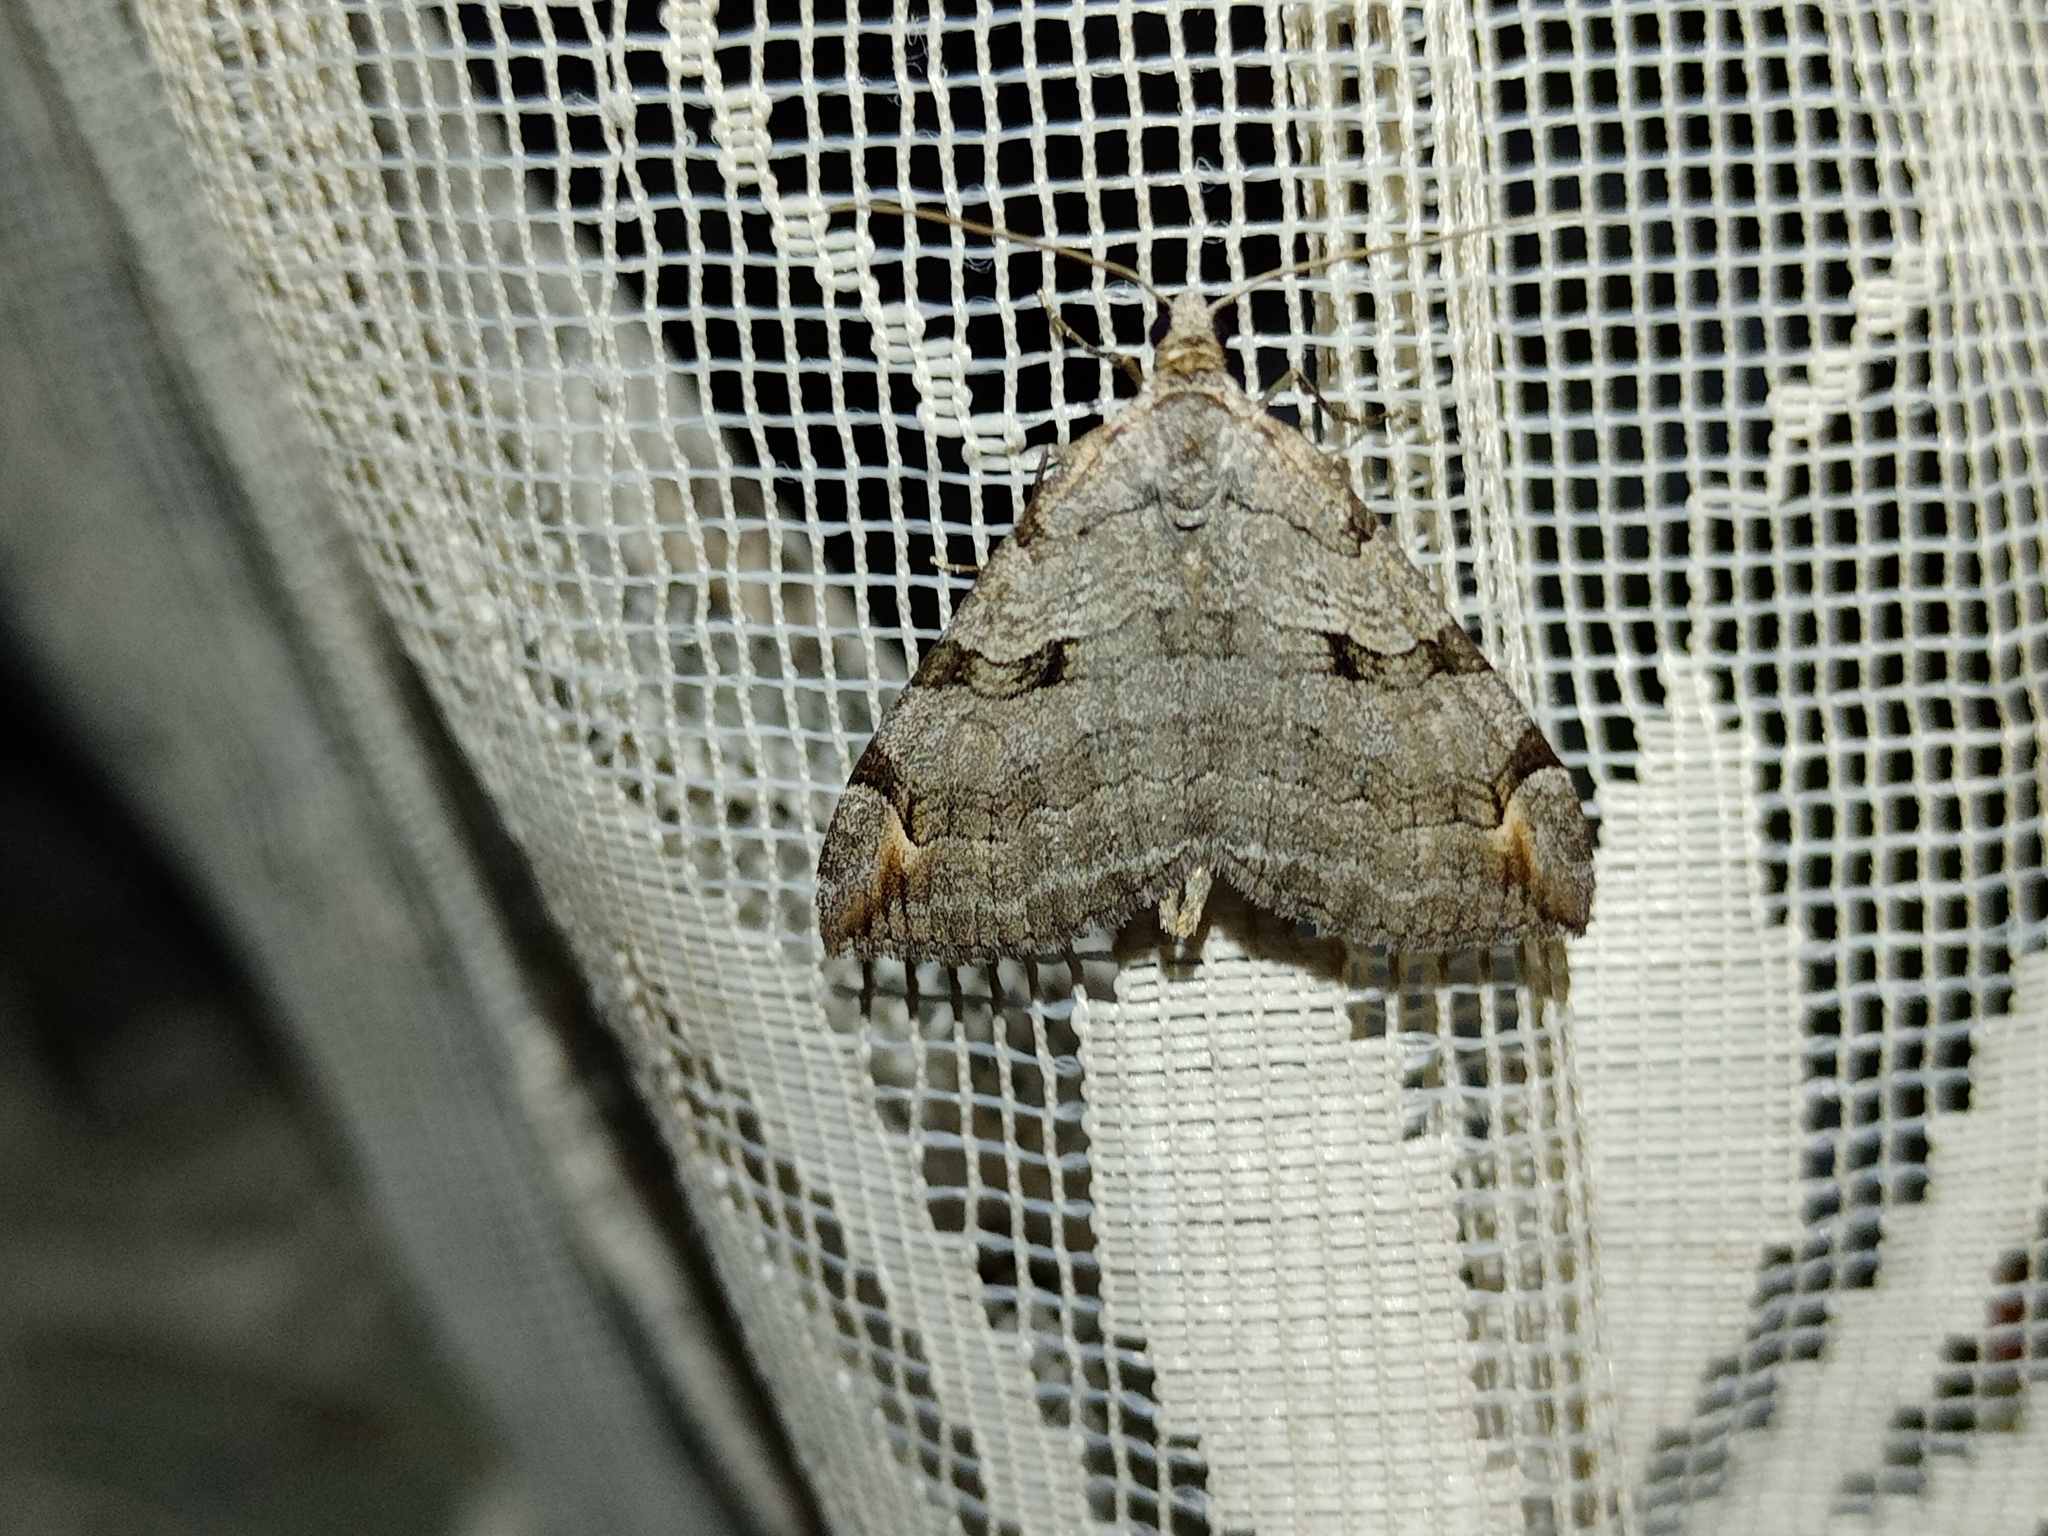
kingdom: Animalia
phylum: Arthropoda
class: Insecta
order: Lepidoptera
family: Geometridae
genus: Aplocera
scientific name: Aplocera plagiata
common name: Treble-bar
